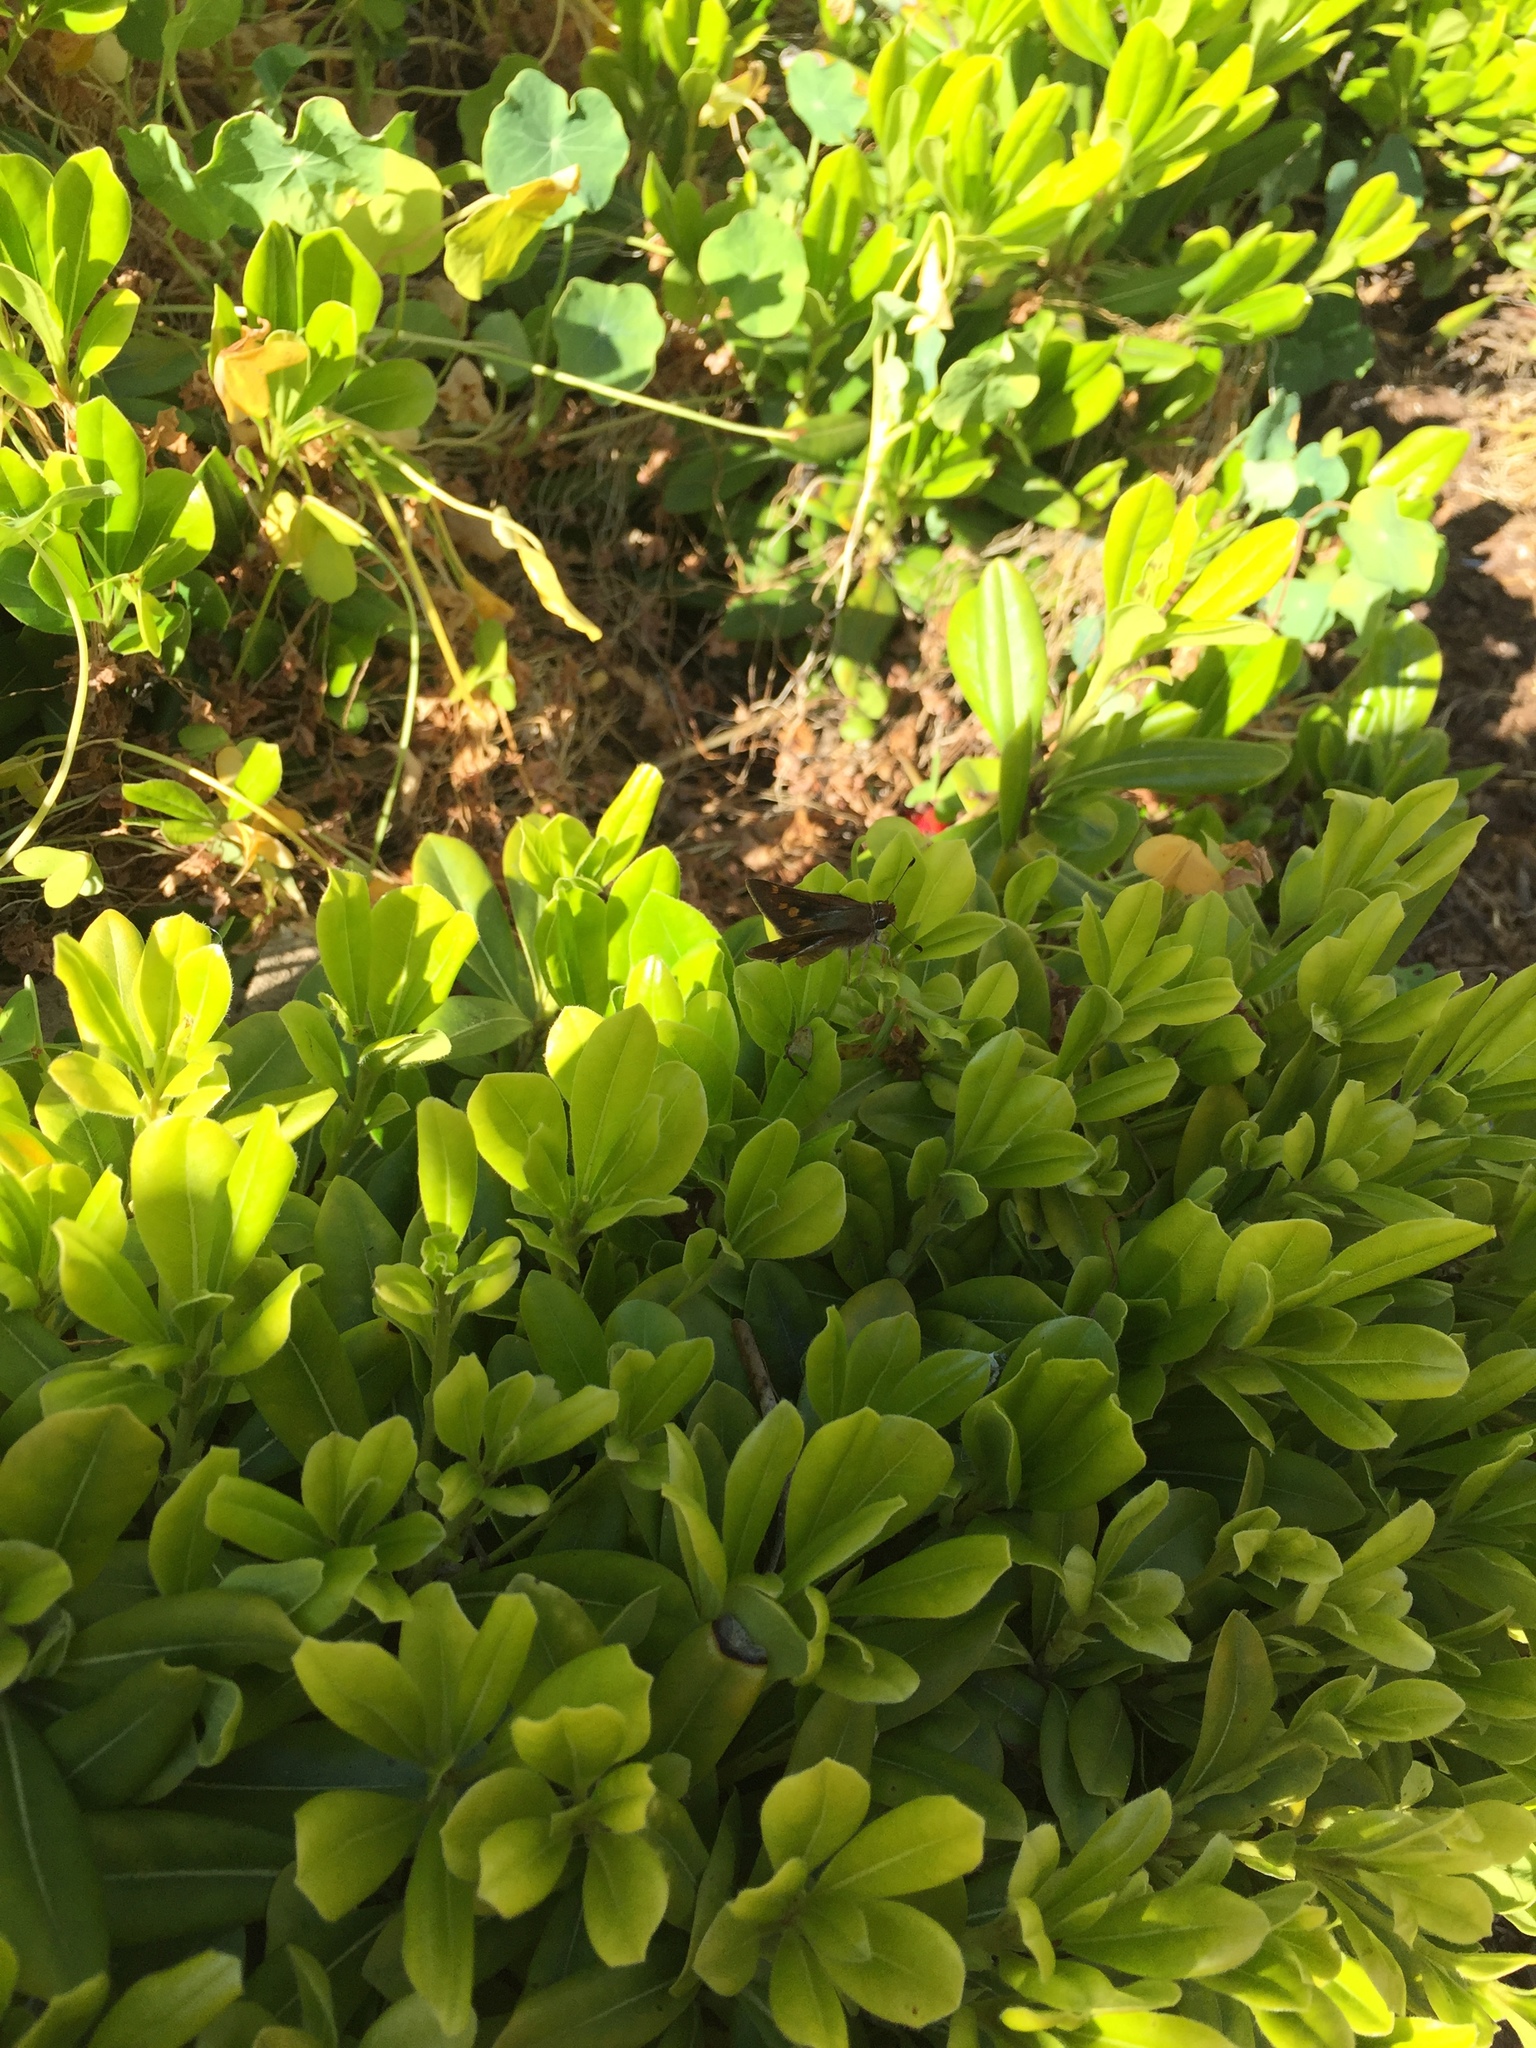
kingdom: Animalia
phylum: Arthropoda
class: Insecta
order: Lepidoptera
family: Hesperiidae
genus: Lon
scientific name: Lon melane
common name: Umber skipper
